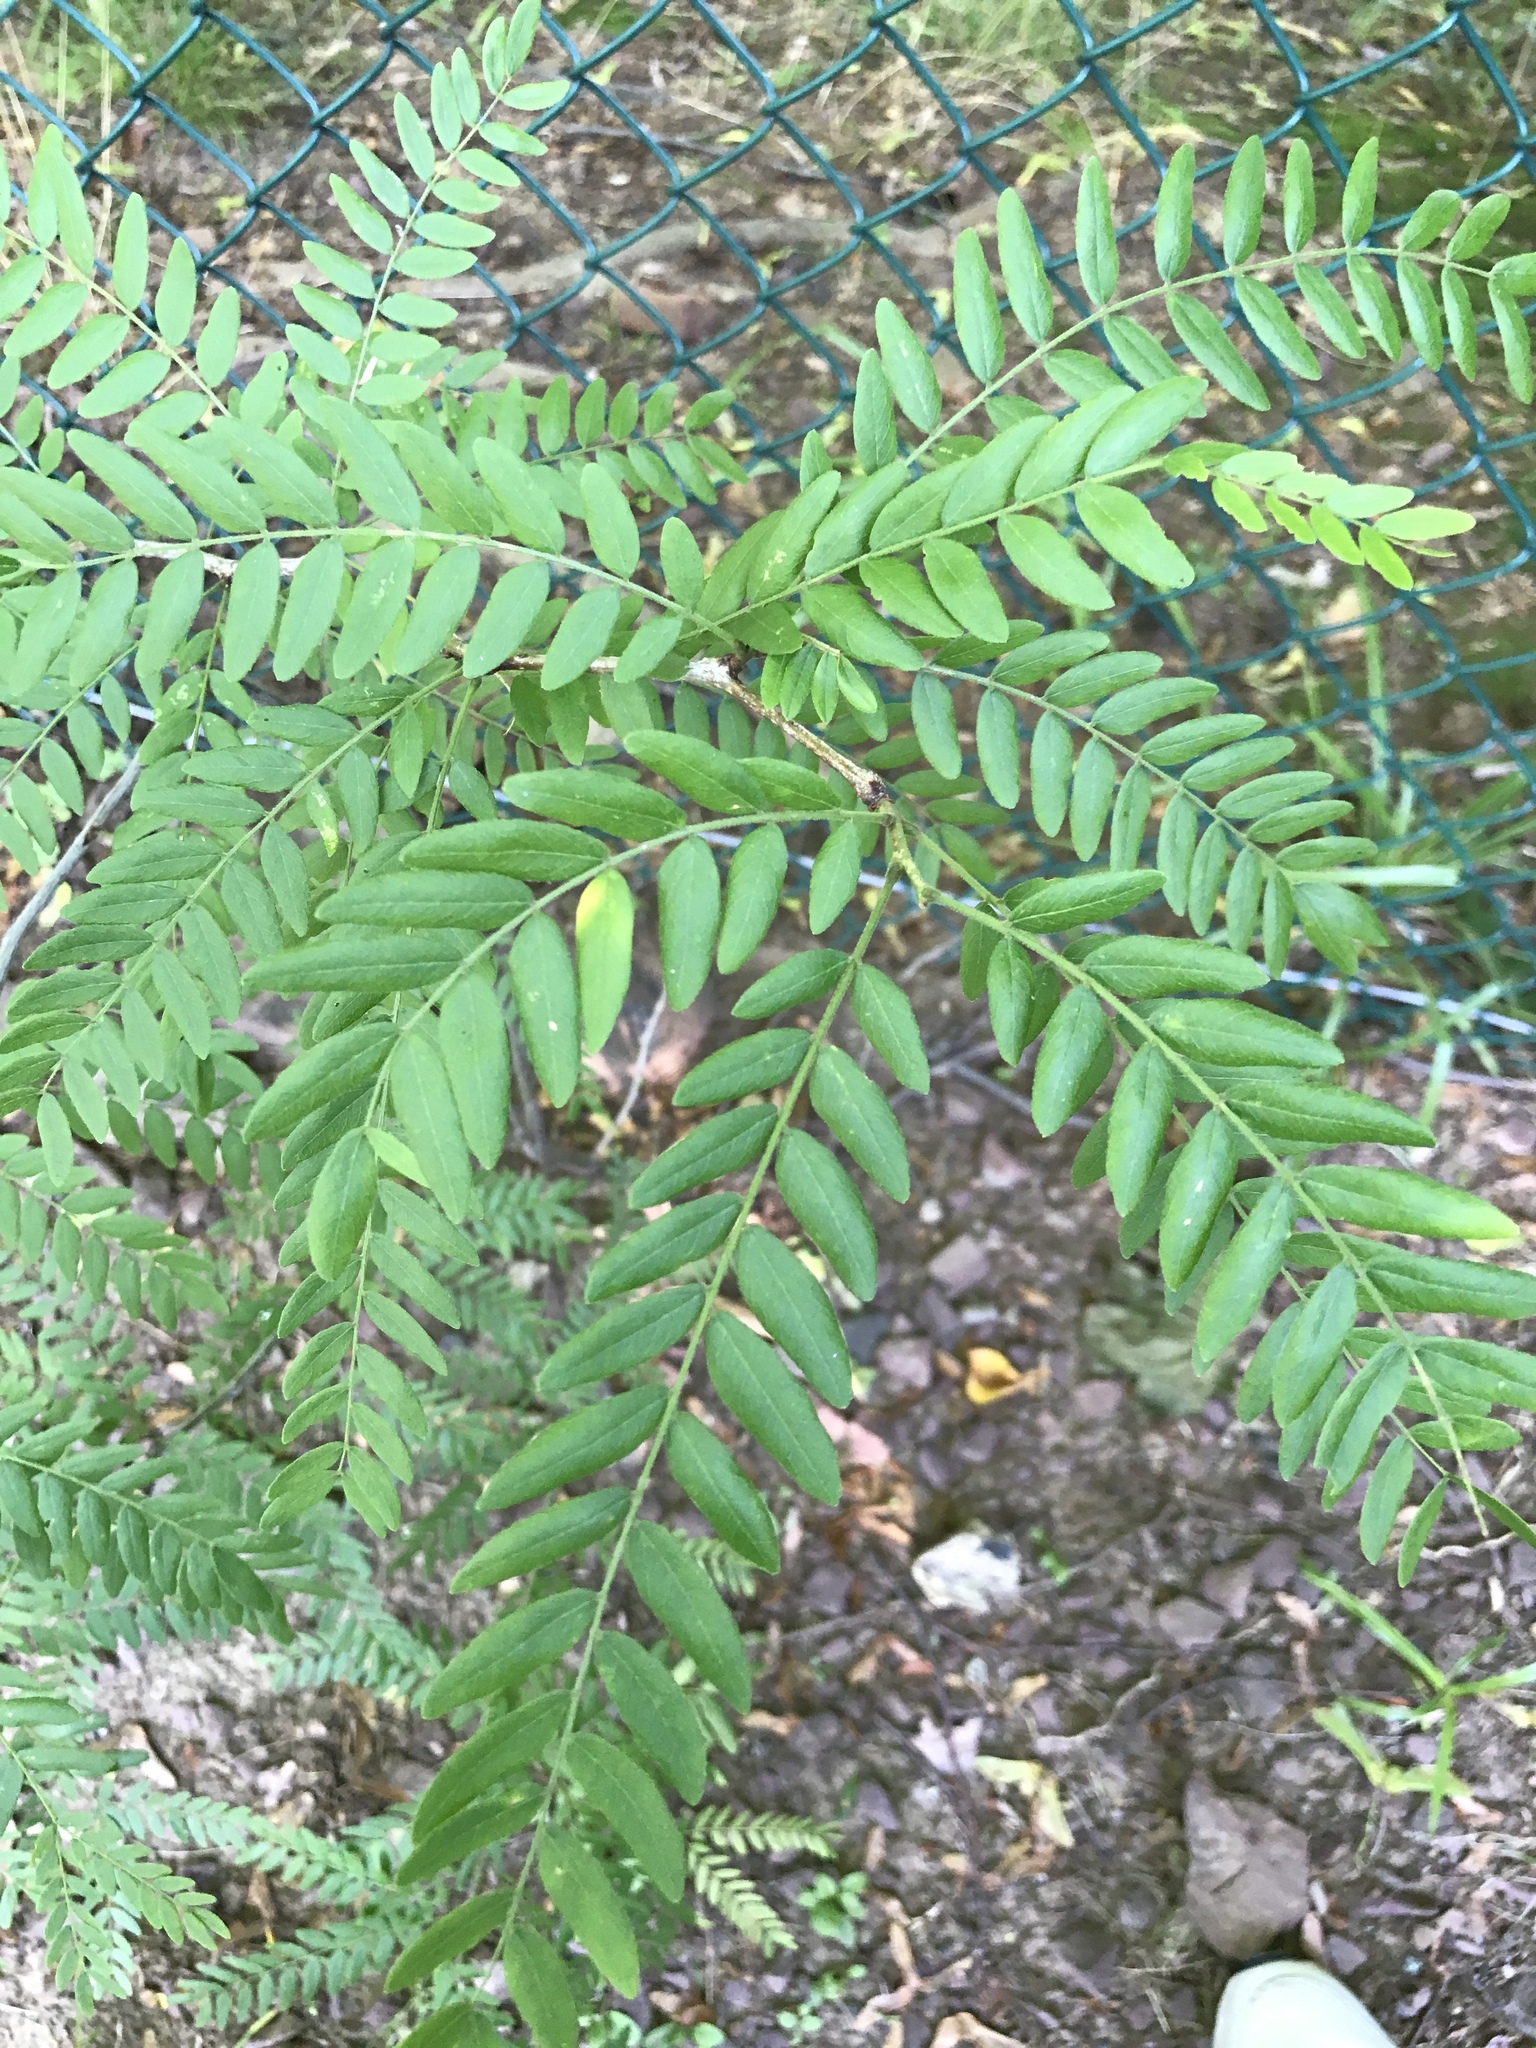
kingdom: Plantae
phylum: Tracheophyta
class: Magnoliopsida
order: Fabales
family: Fabaceae
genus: Gleditsia
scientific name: Gleditsia triacanthos
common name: Common honeylocust
